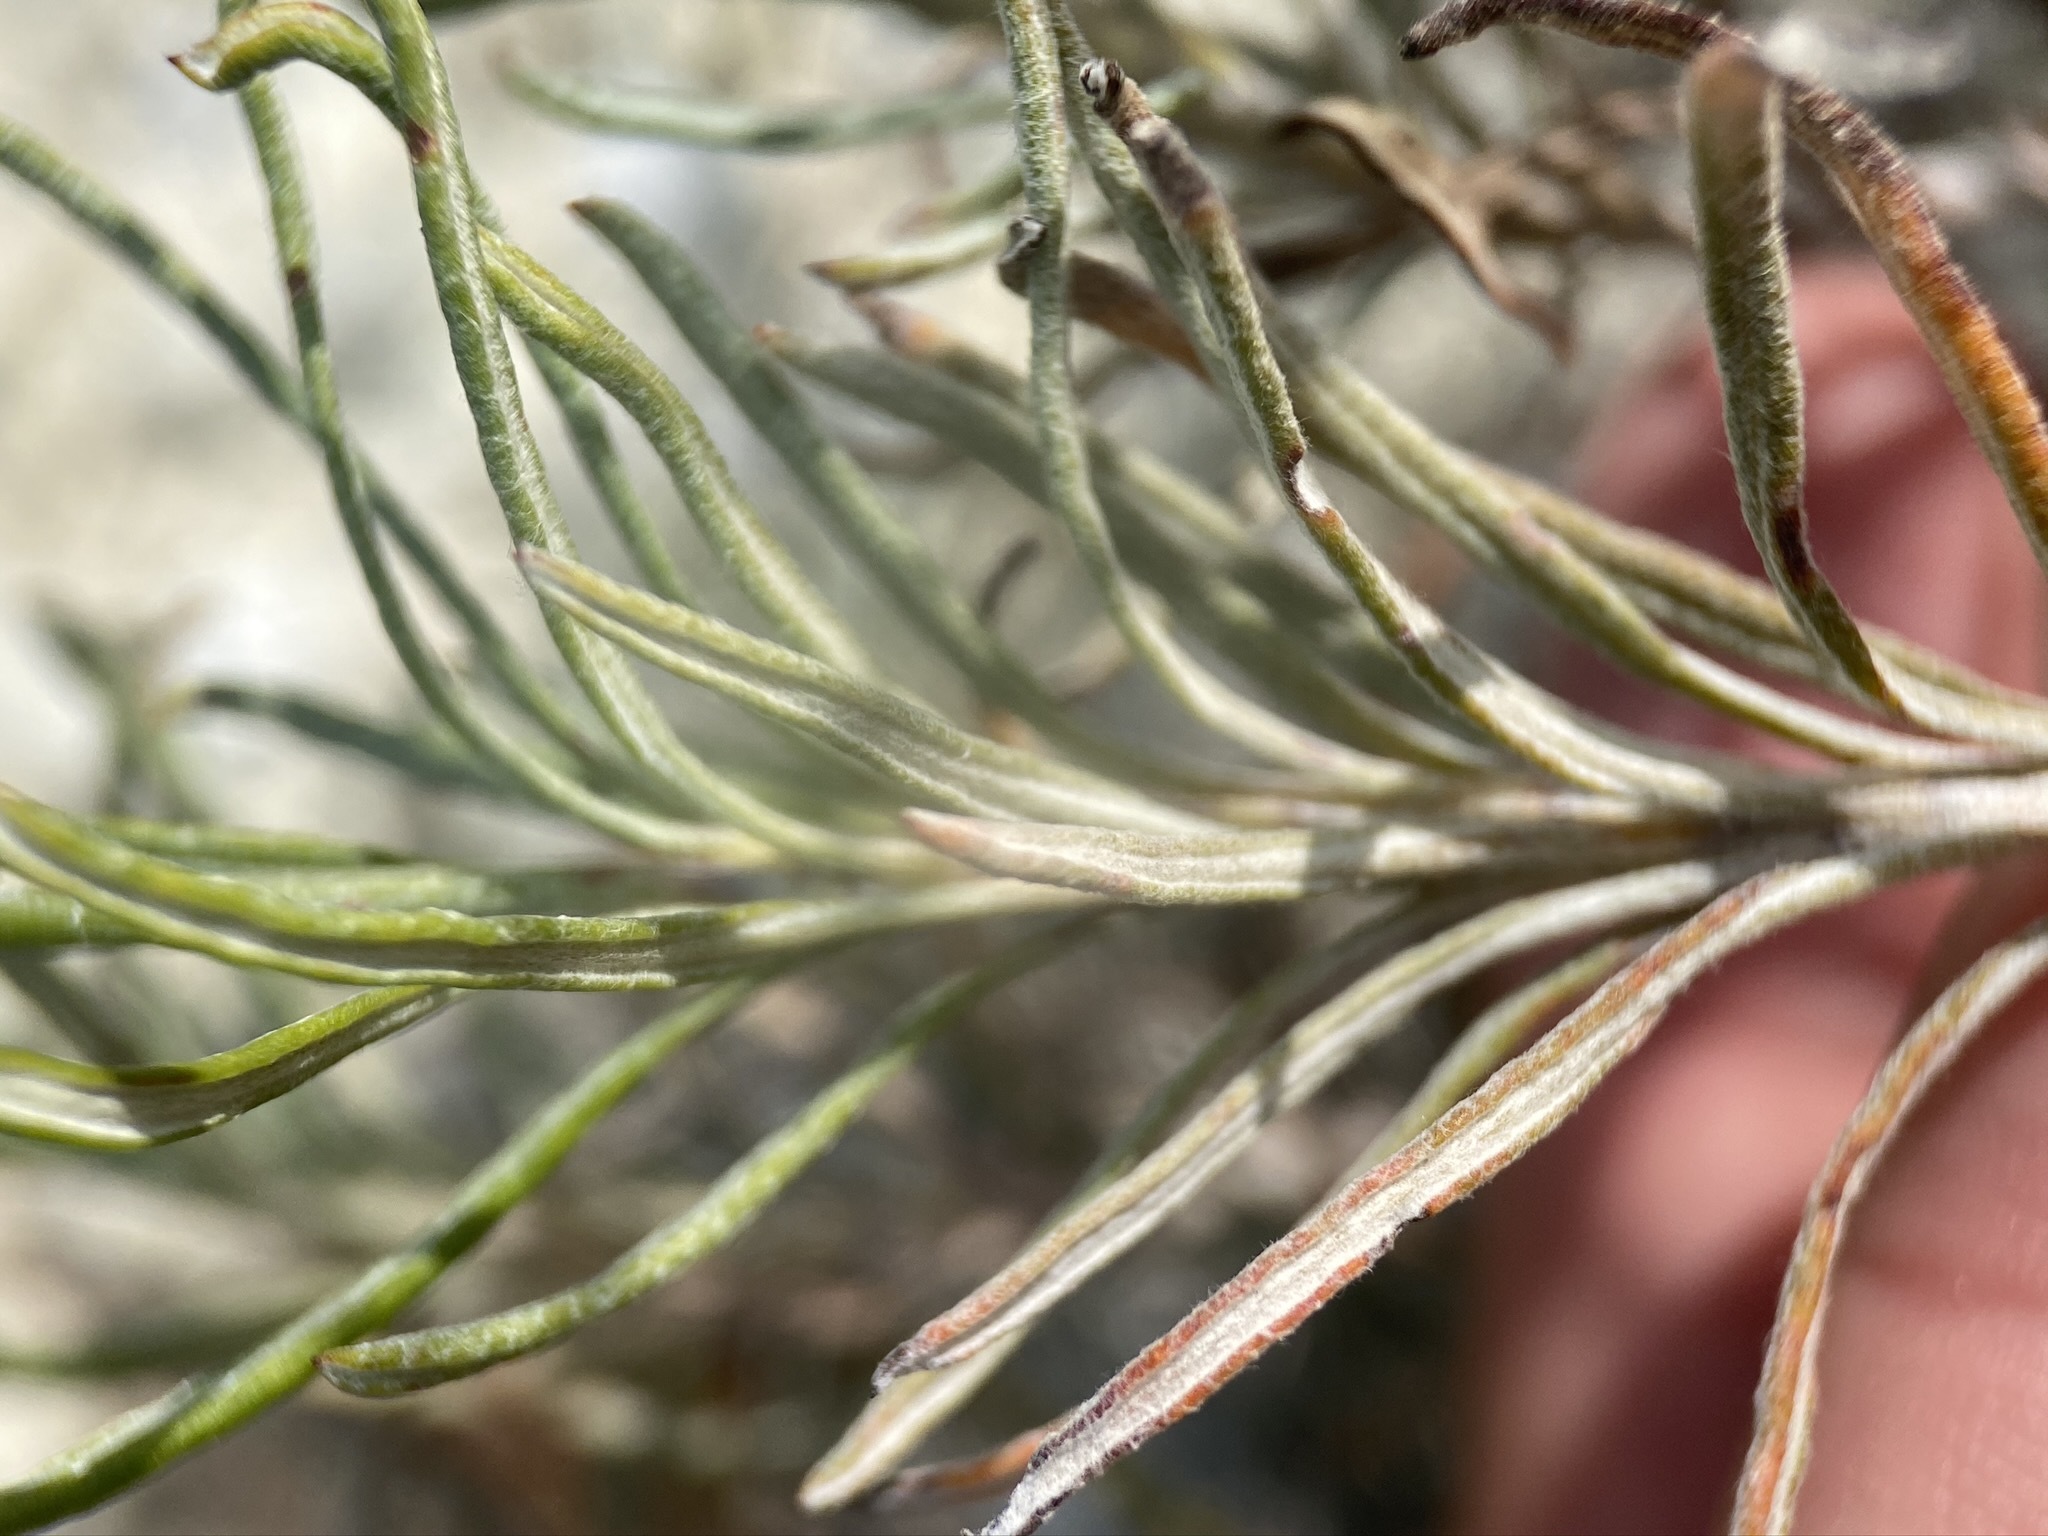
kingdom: Plantae
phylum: Tracheophyta
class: Magnoliopsida
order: Caryophyllales
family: Polygonaceae
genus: Eriogonum
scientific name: Eriogonum helichrysoides
